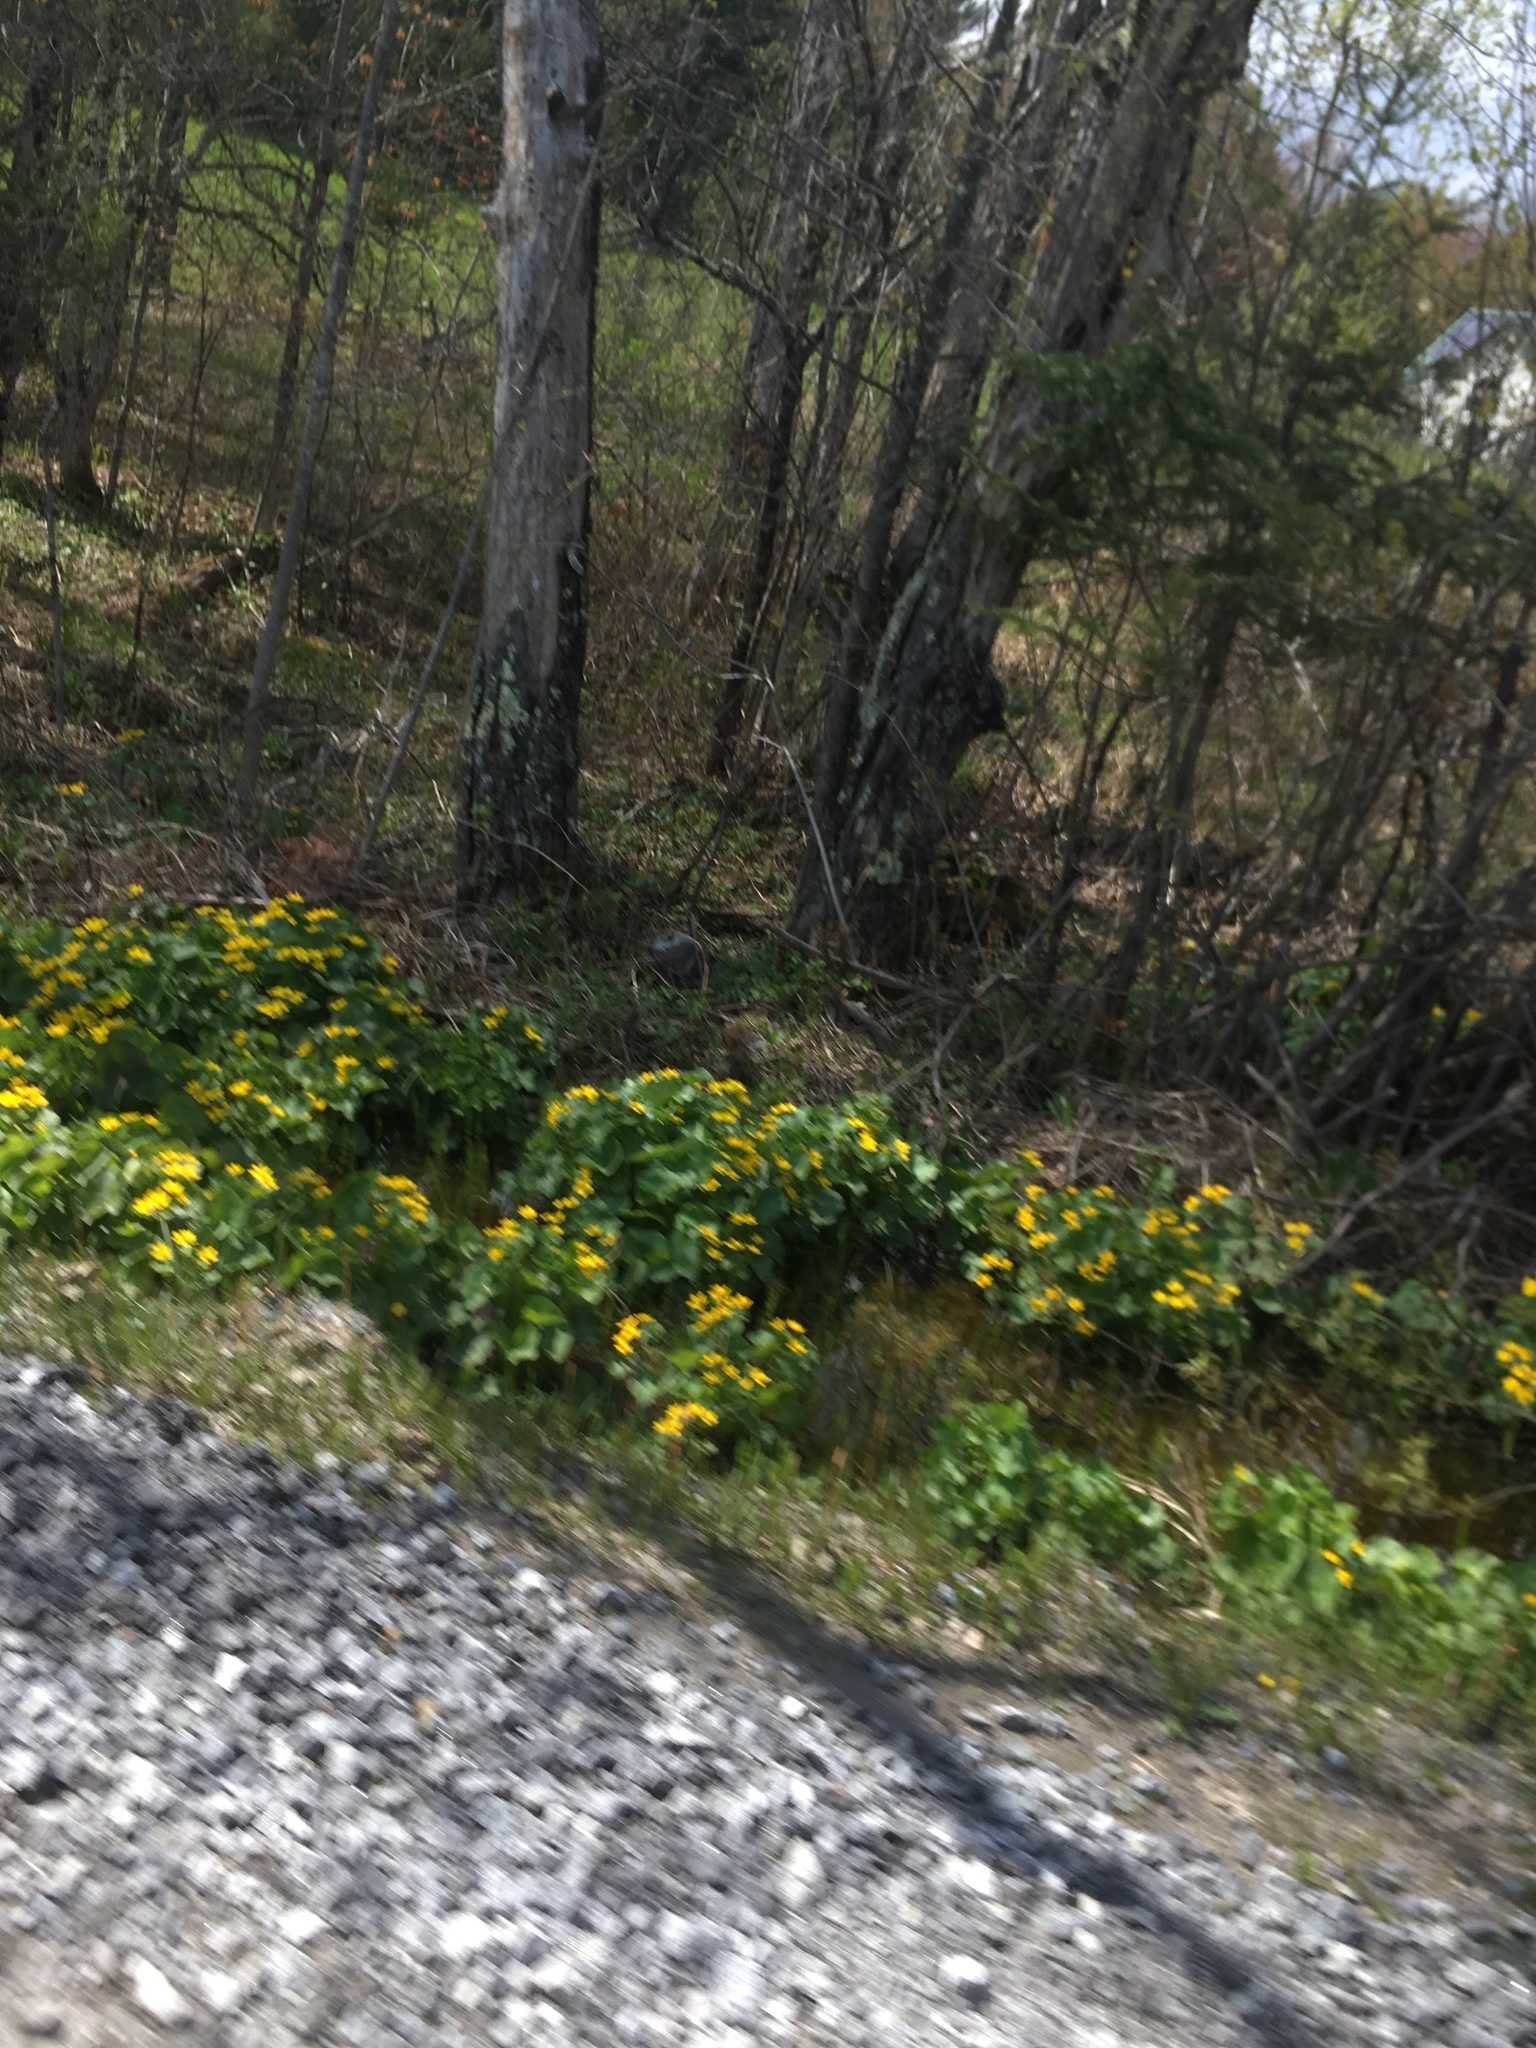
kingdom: Plantae
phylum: Tracheophyta
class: Magnoliopsida
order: Ranunculales
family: Ranunculaceae
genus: Caltha
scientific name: Caltha palustris
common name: Marsh marigold
